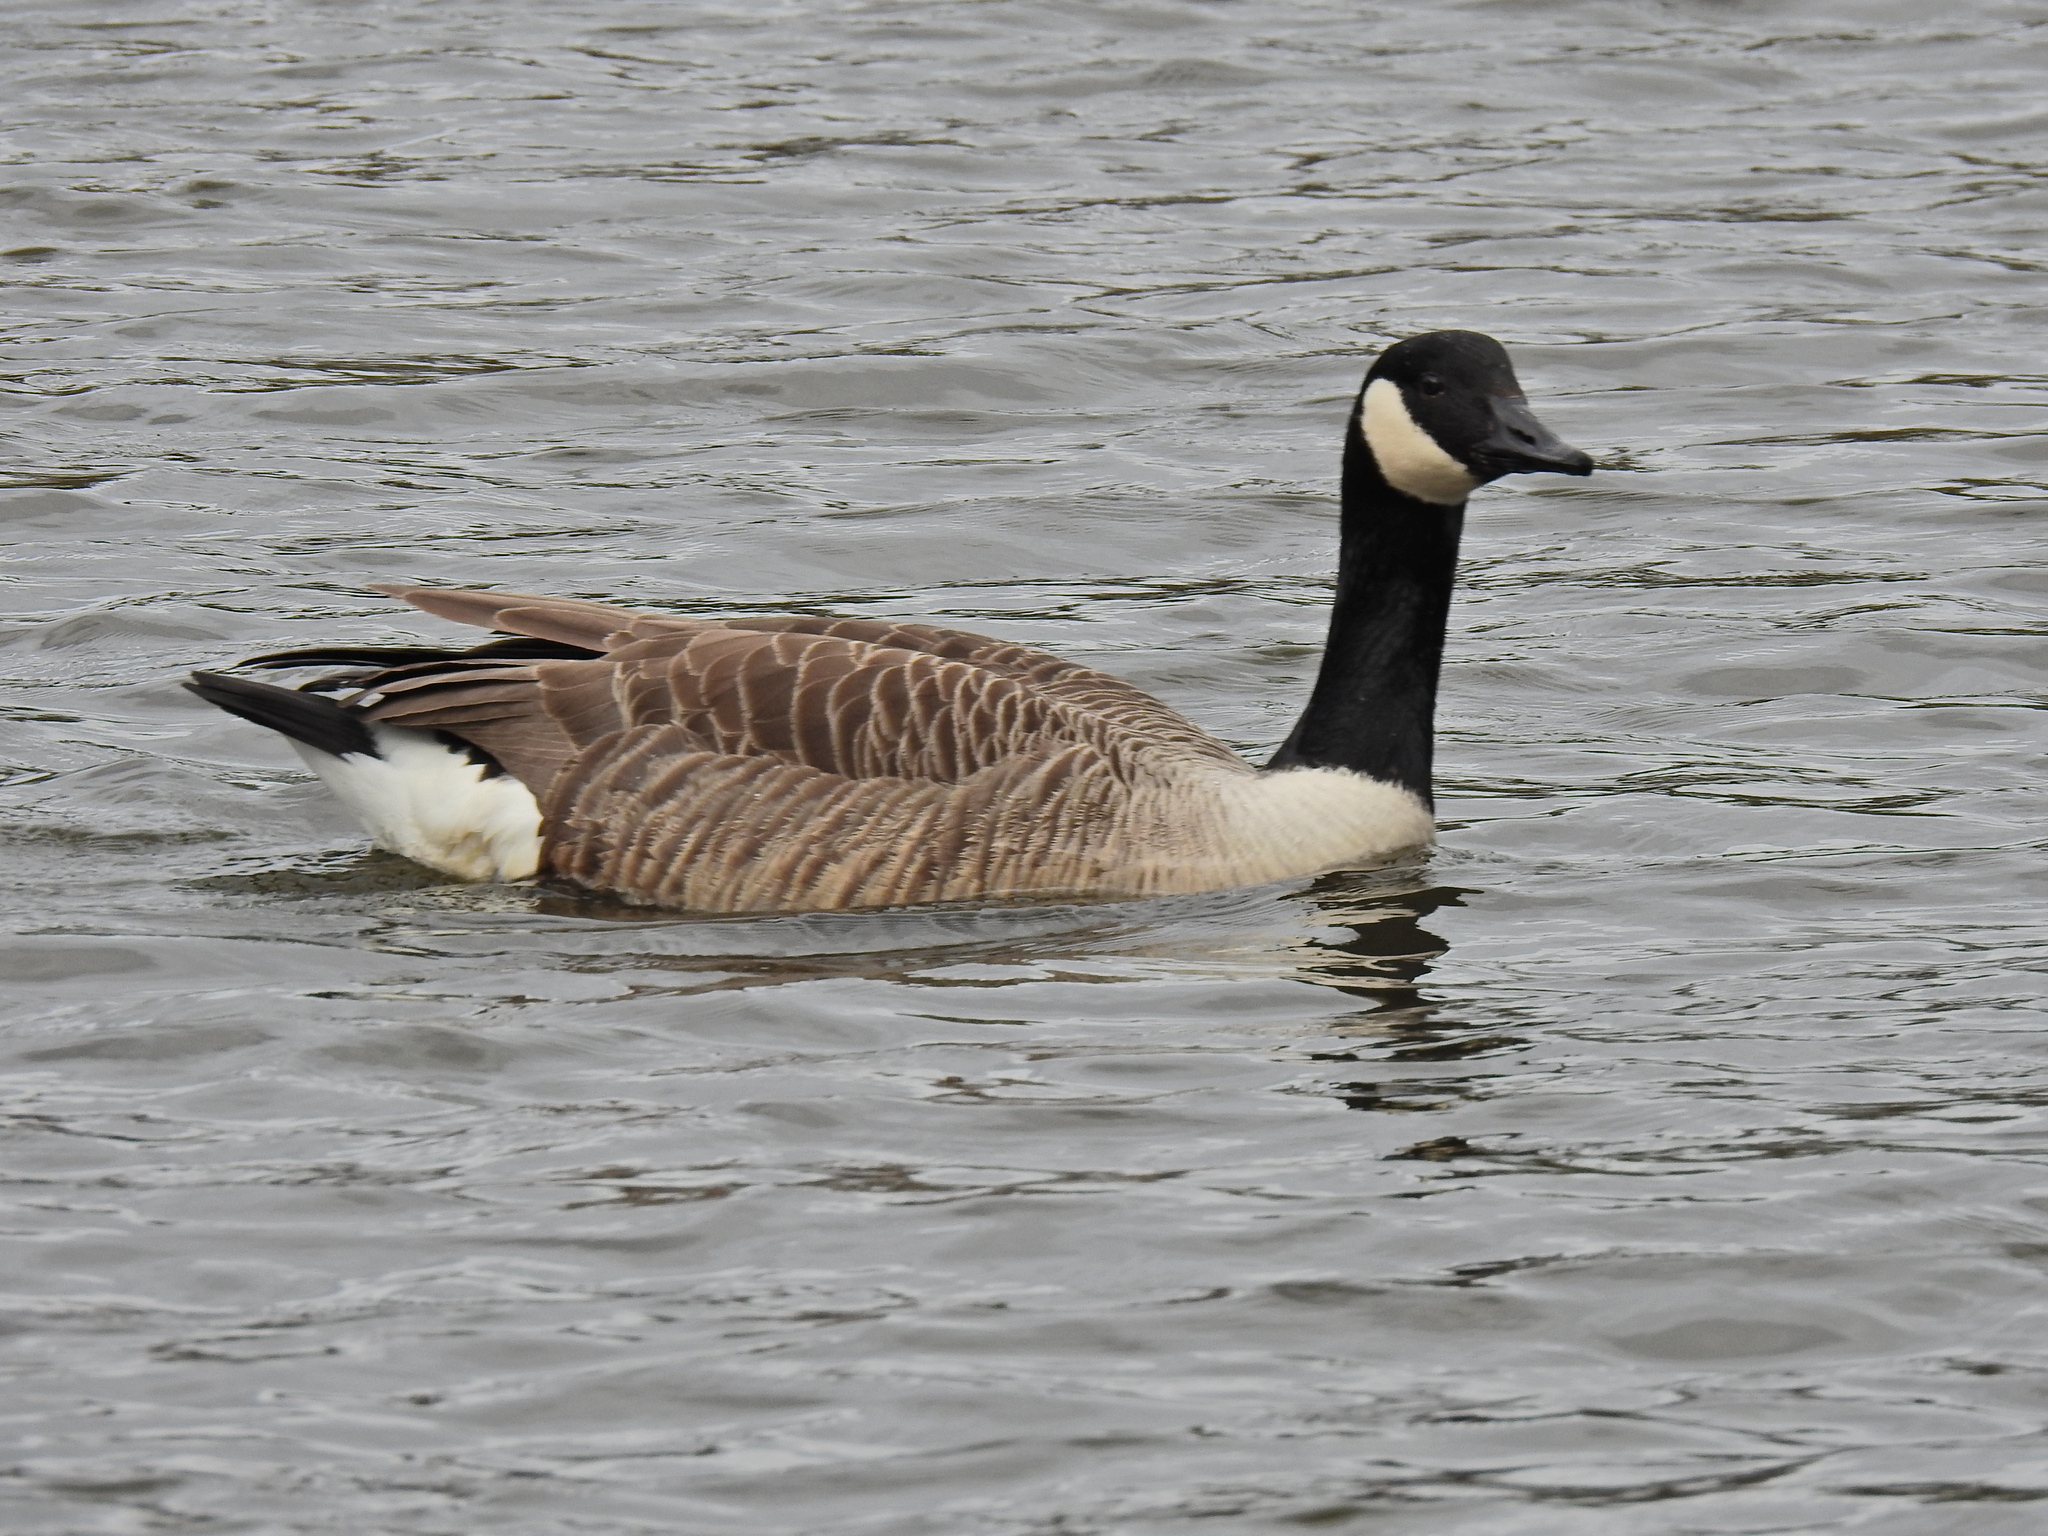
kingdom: Animalia
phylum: Chordata
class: Aves
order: Anseriformes
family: Anatidae
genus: Branta
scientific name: Branta canadensis
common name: Canada goose
